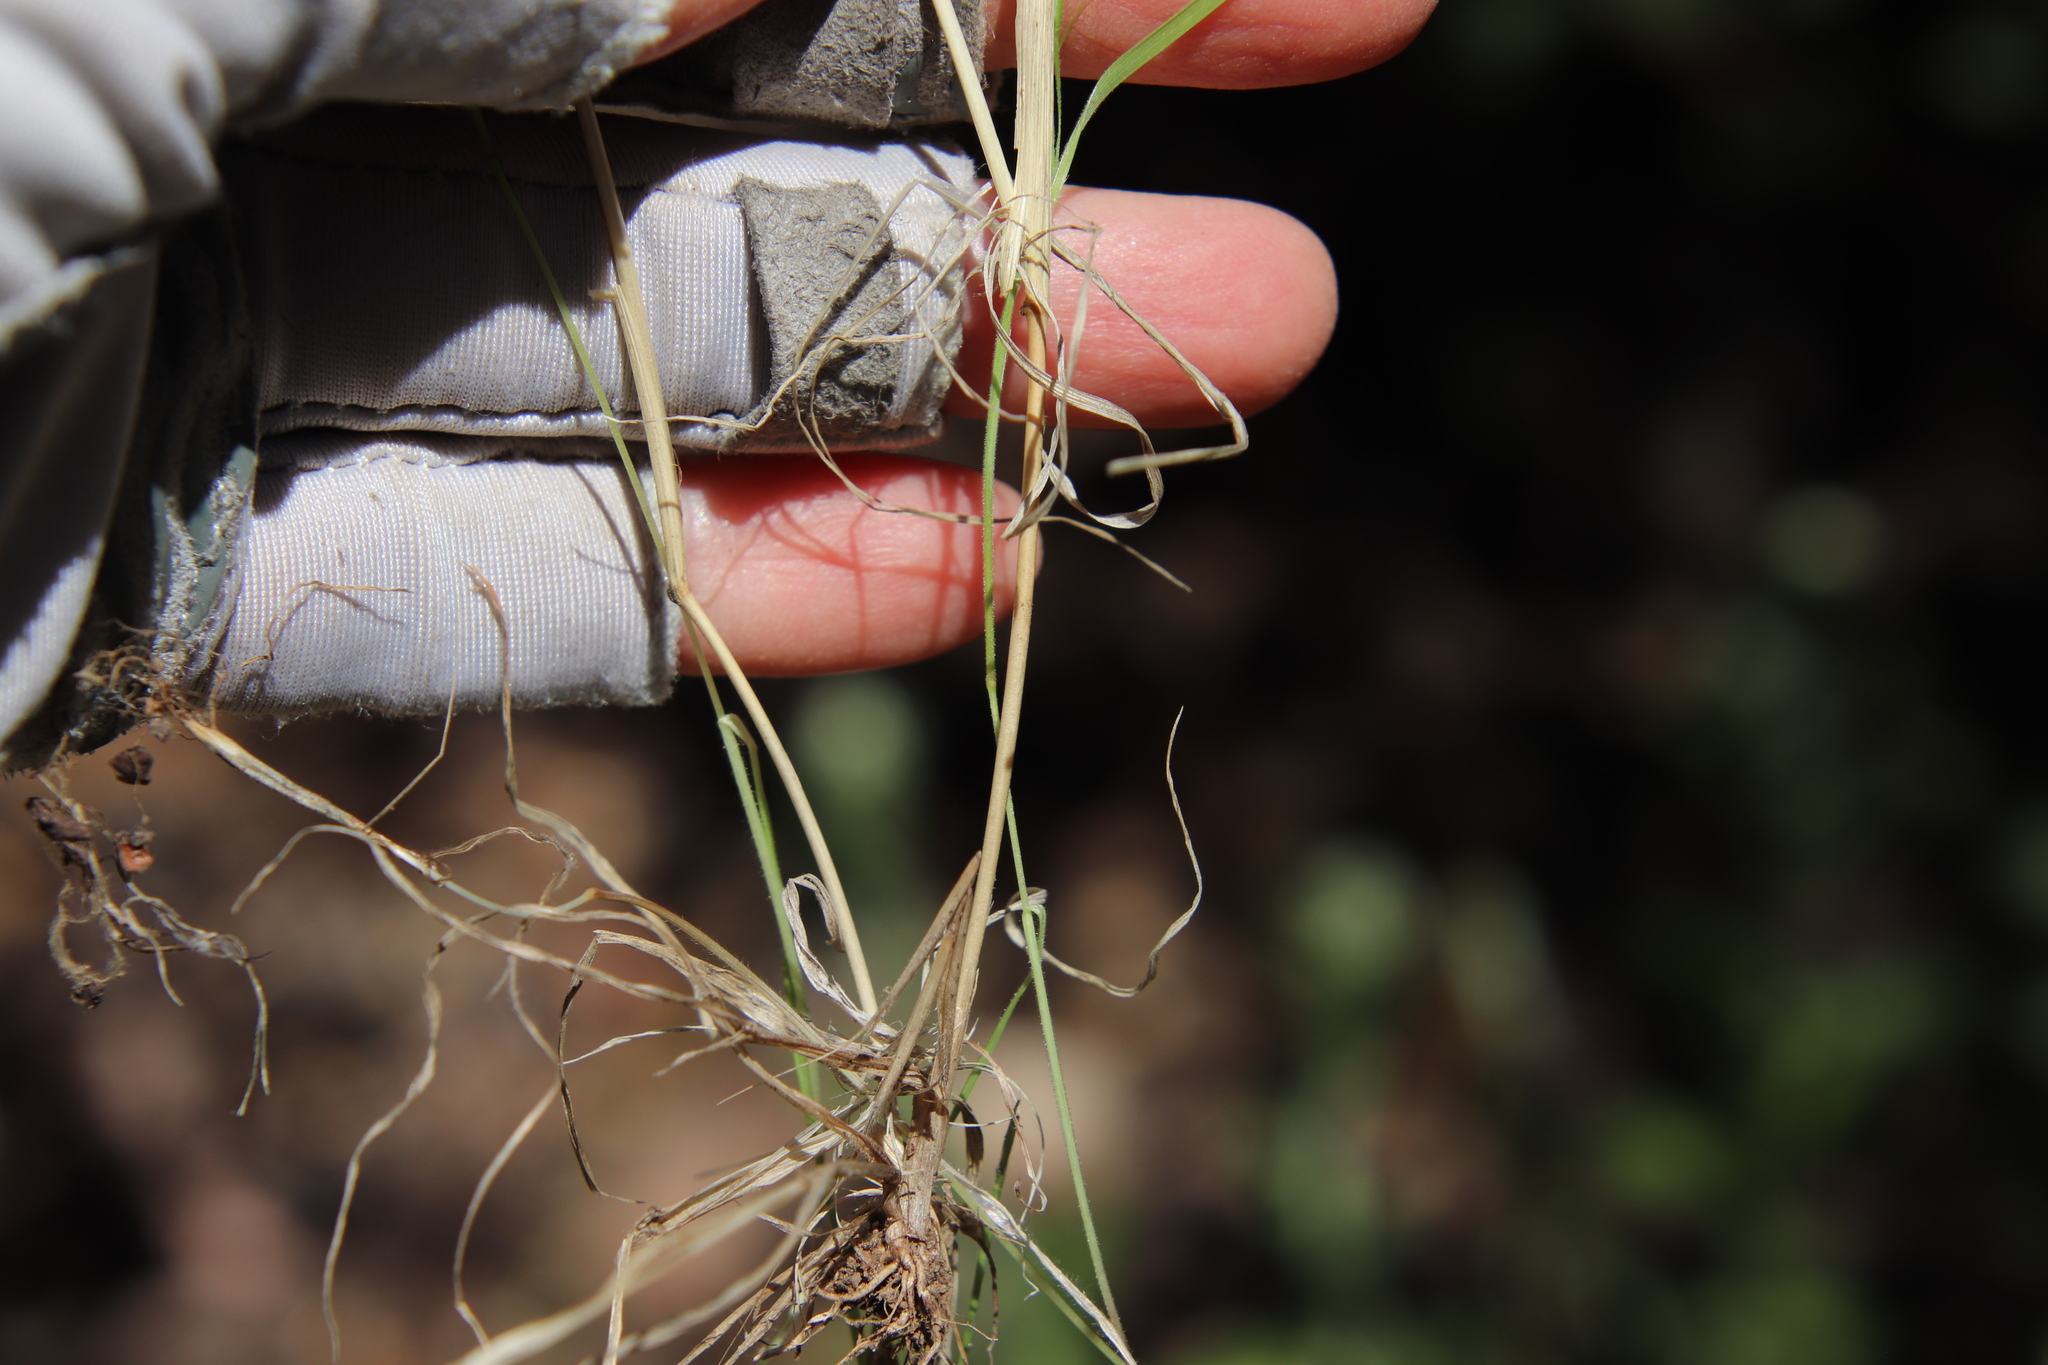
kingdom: Plantae
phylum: Tracheophyta
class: Liliopsida
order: Poales
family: Poaceae
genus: Gastridium
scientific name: Gastridium phleoides
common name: Nit grass
